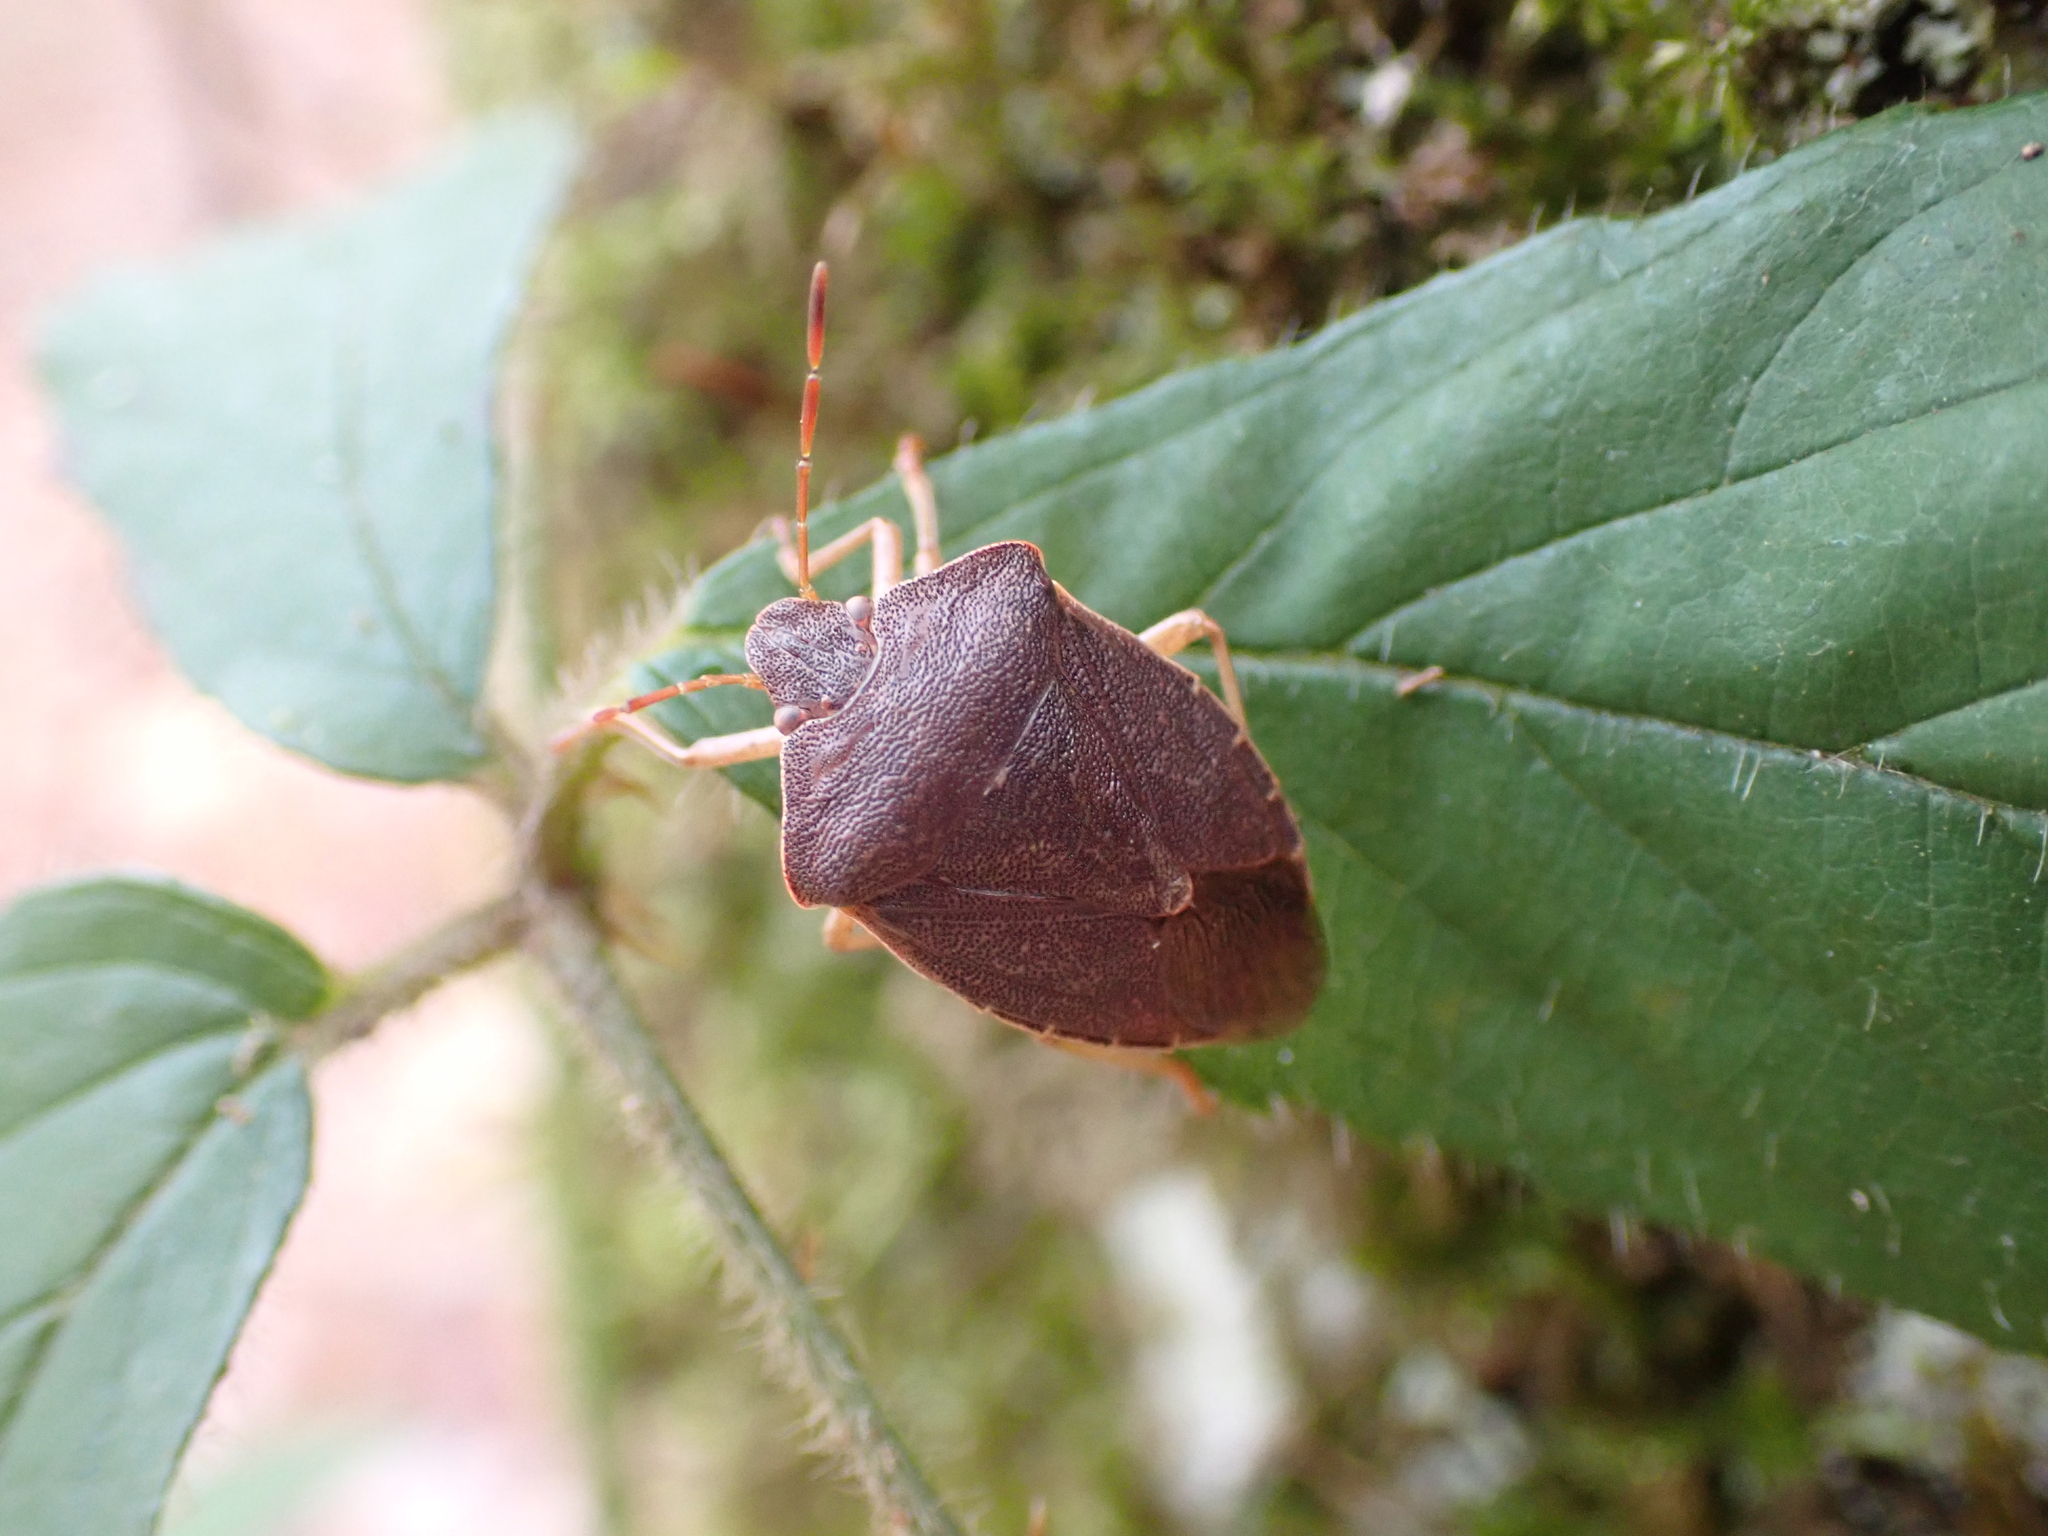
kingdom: Animalia
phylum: Arthropoda
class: Insecta
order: Hemiptera
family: Pentatomidae
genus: Palomena
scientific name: Palomena prasina
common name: Green shieldbug
